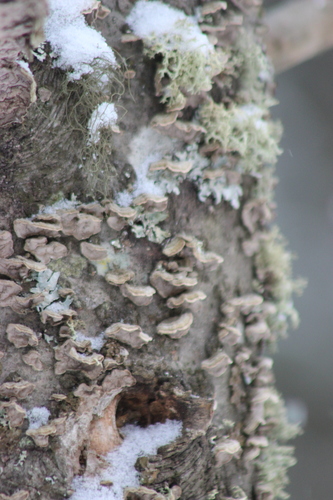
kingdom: Fungi
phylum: Basidiomycota
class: Agaricomycetes
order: Russulales
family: Stereaceae
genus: Stereum
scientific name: Stereum
